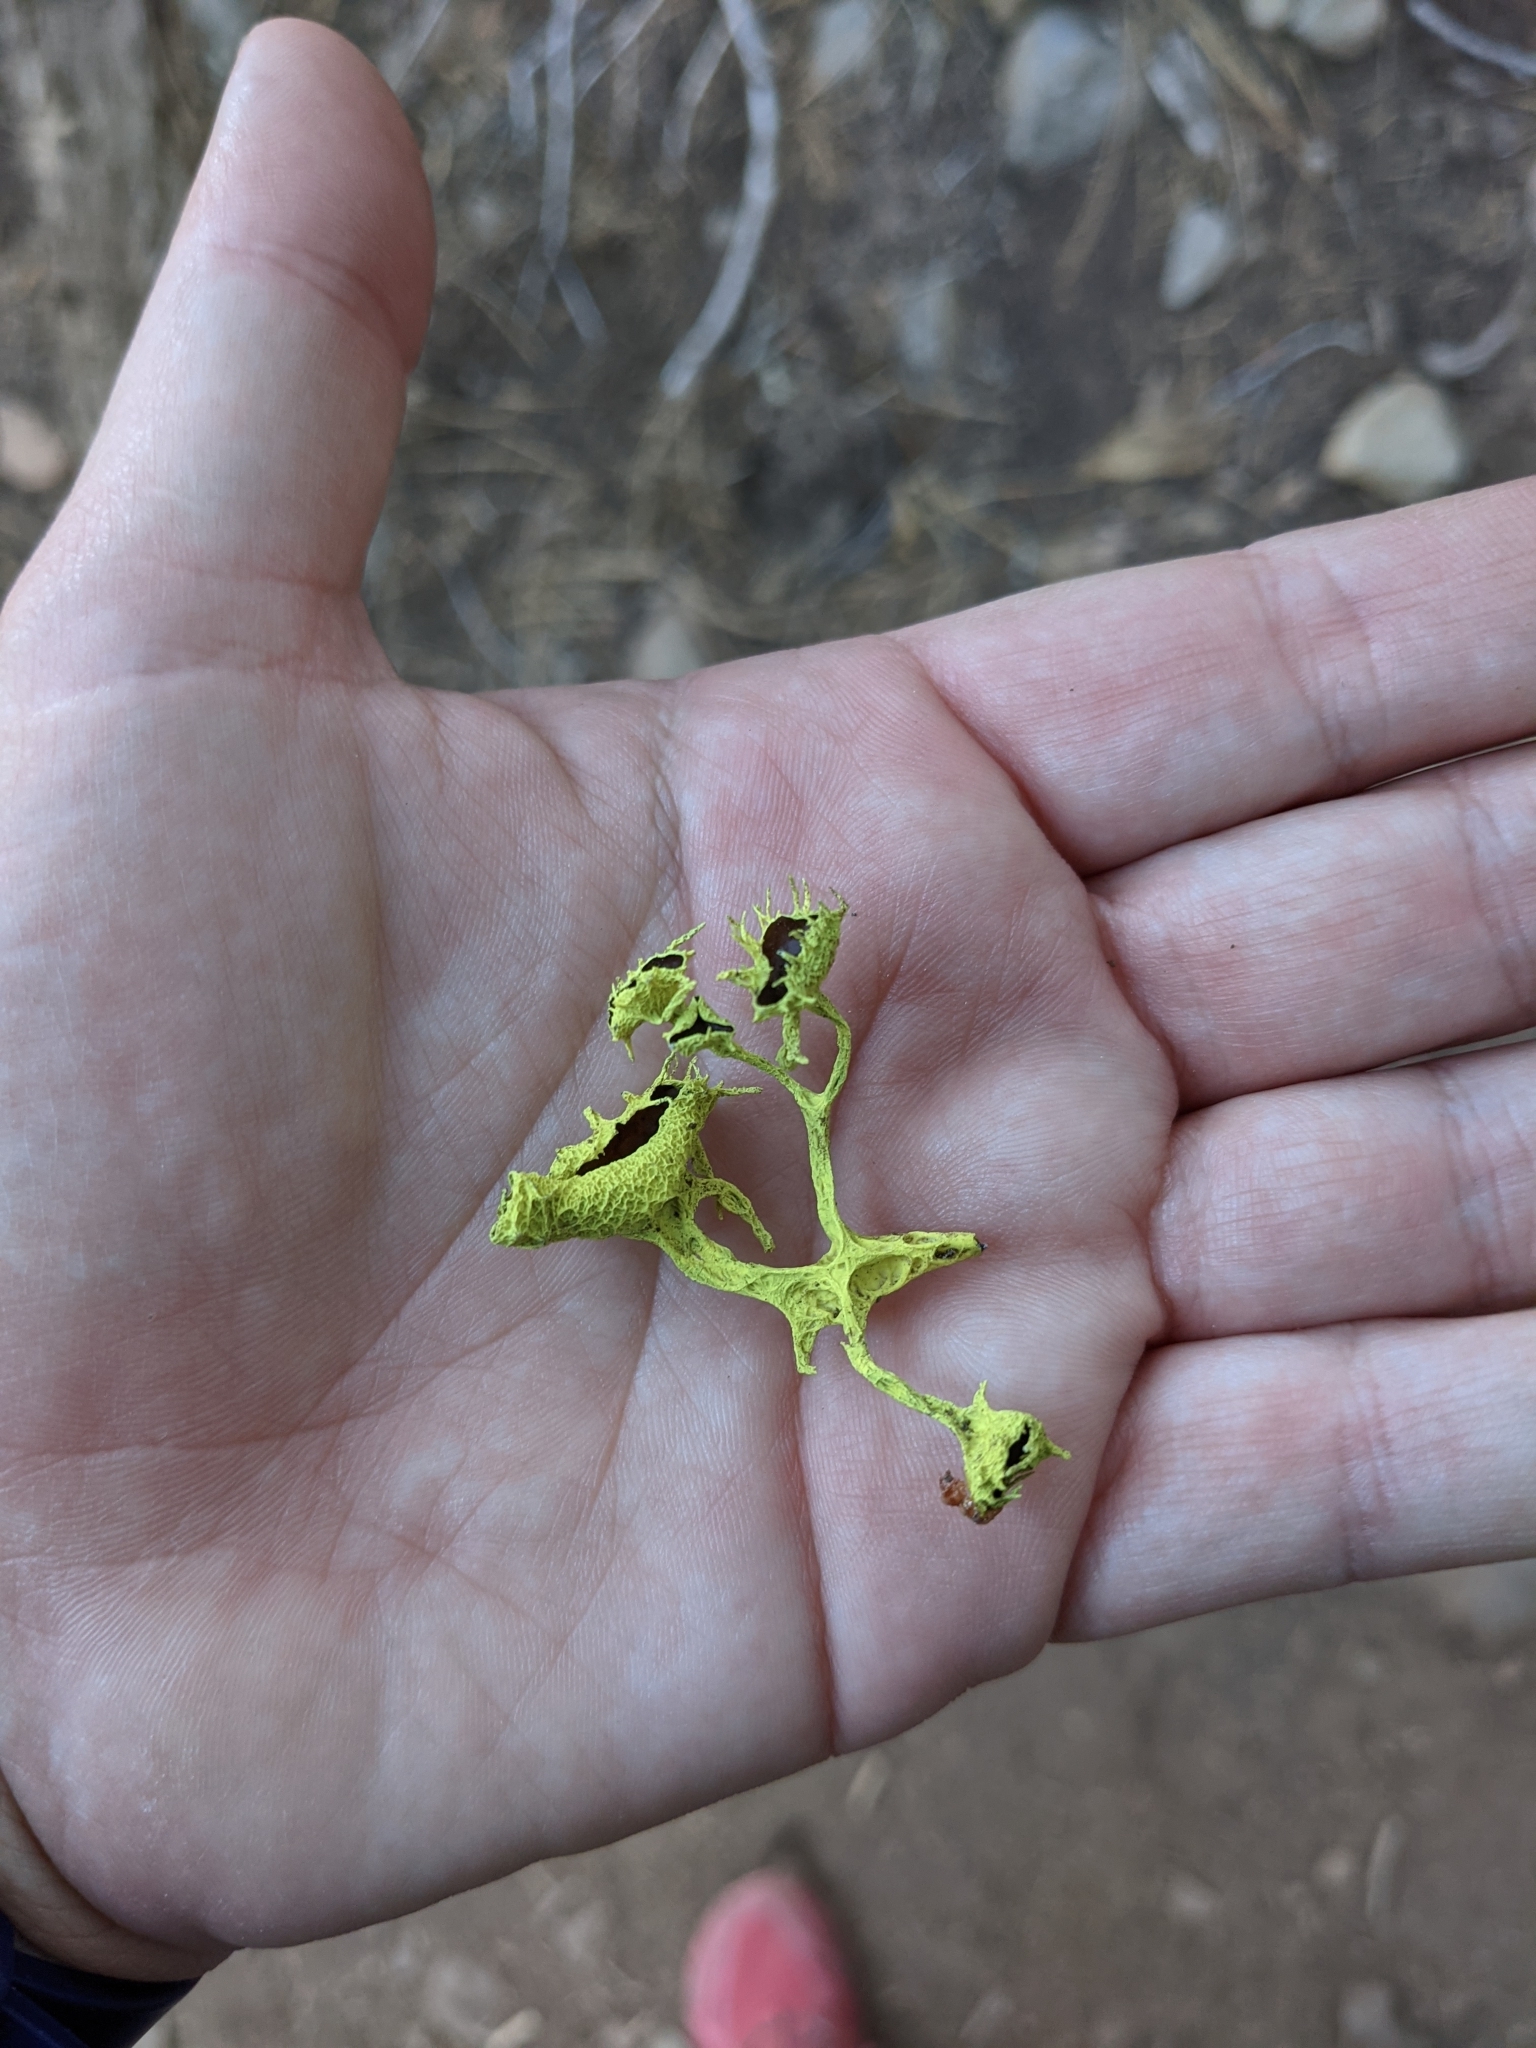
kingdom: Fungi
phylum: Ascomycota
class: Lecanoromycetes
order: Lecanorales
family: Parmeliaceae
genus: Letharia
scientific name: Letharia columbiana
